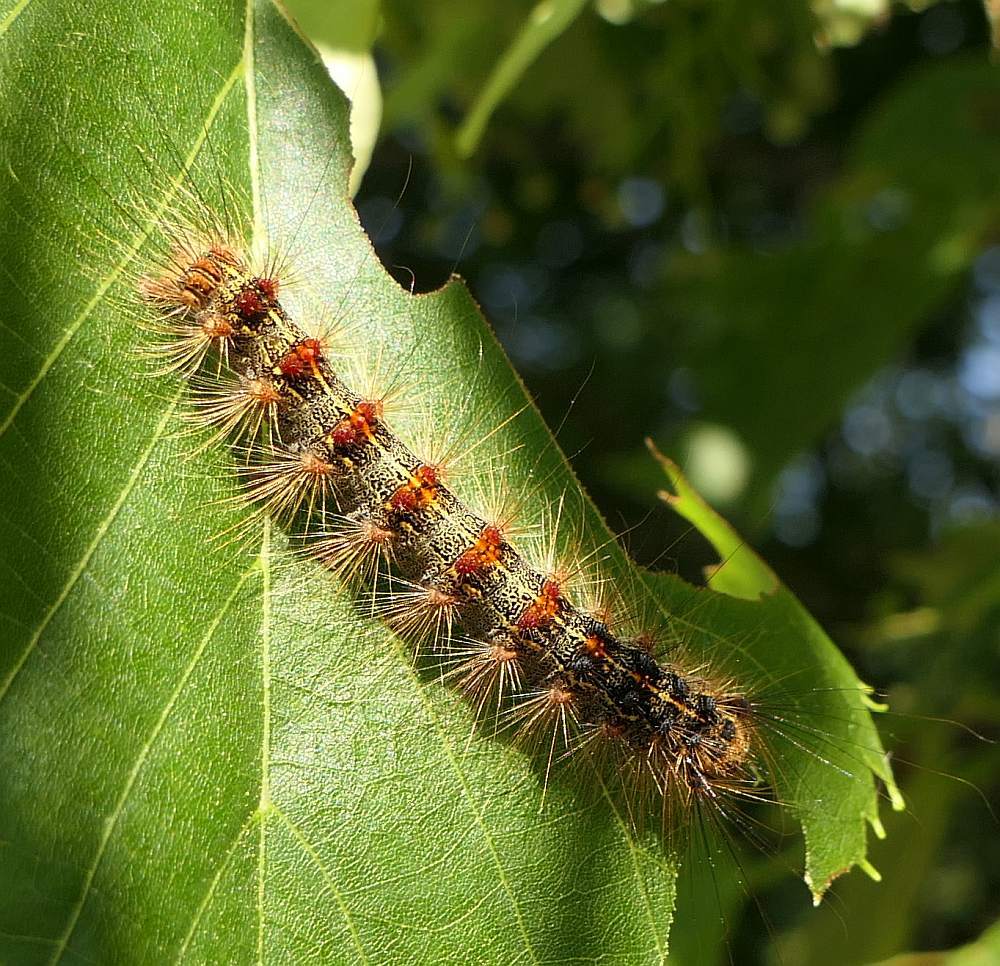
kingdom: Animalia
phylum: Arthropoda
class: Insecta
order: Lepidoptera
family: Erebidae
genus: Lymantria
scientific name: Lymantria dispar
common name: Gypsy moth
